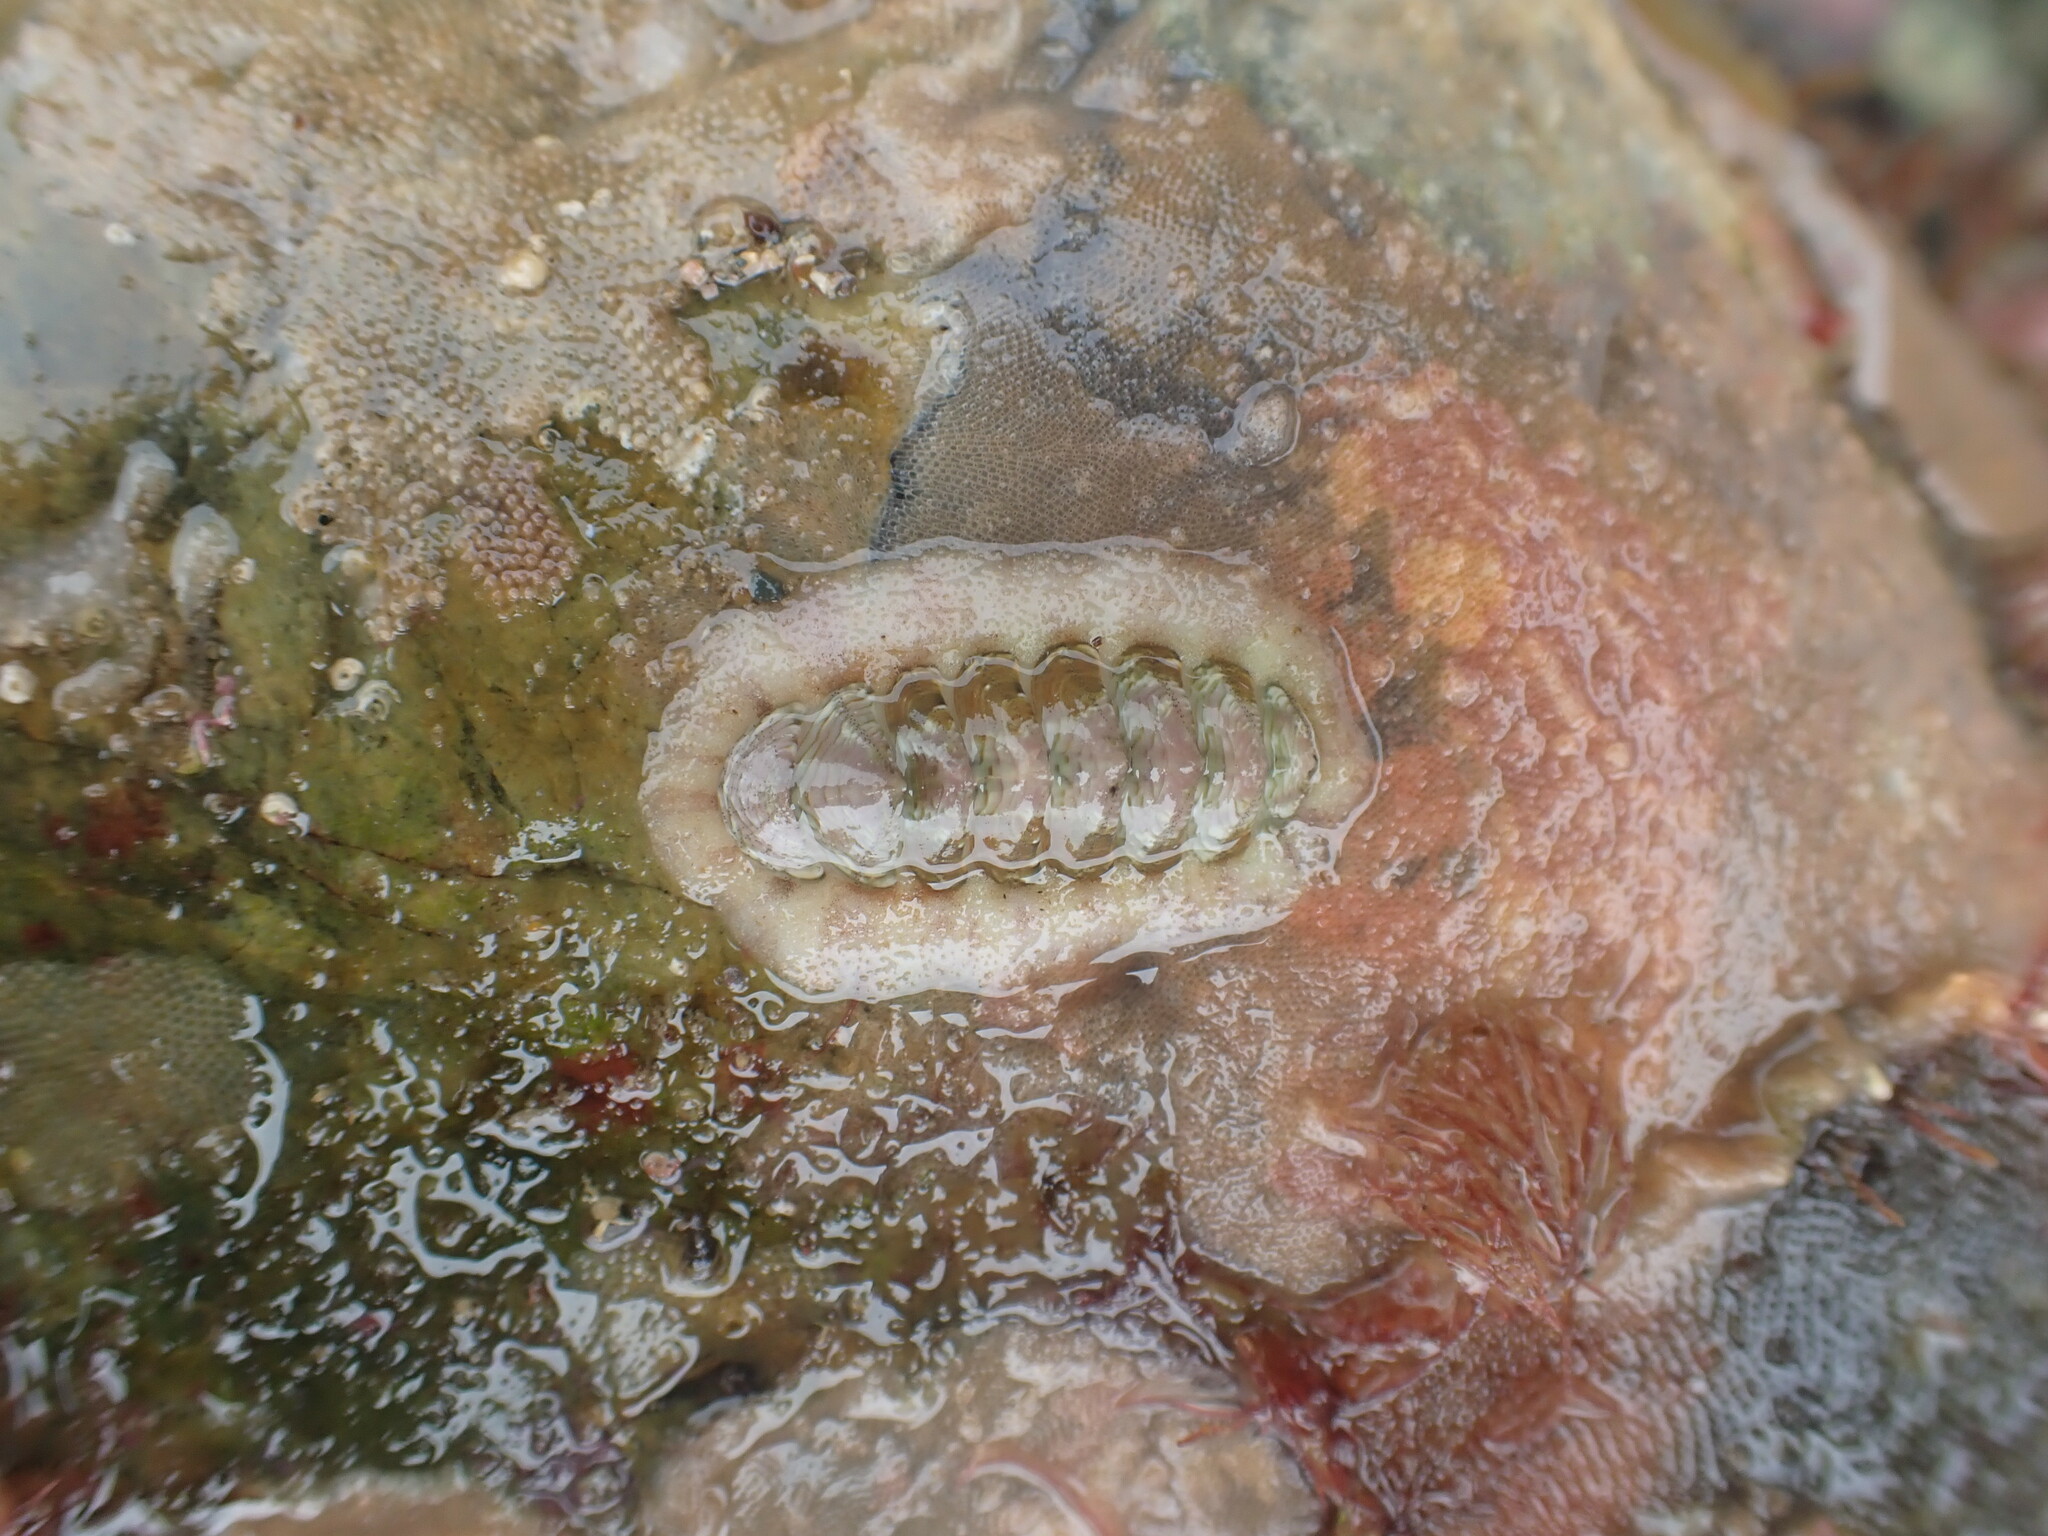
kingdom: Animalia
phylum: Mollusca
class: Polyplacophora
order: Chitonida
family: Chitonidae
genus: Onithochiton
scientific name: Onithochiton neglectus
